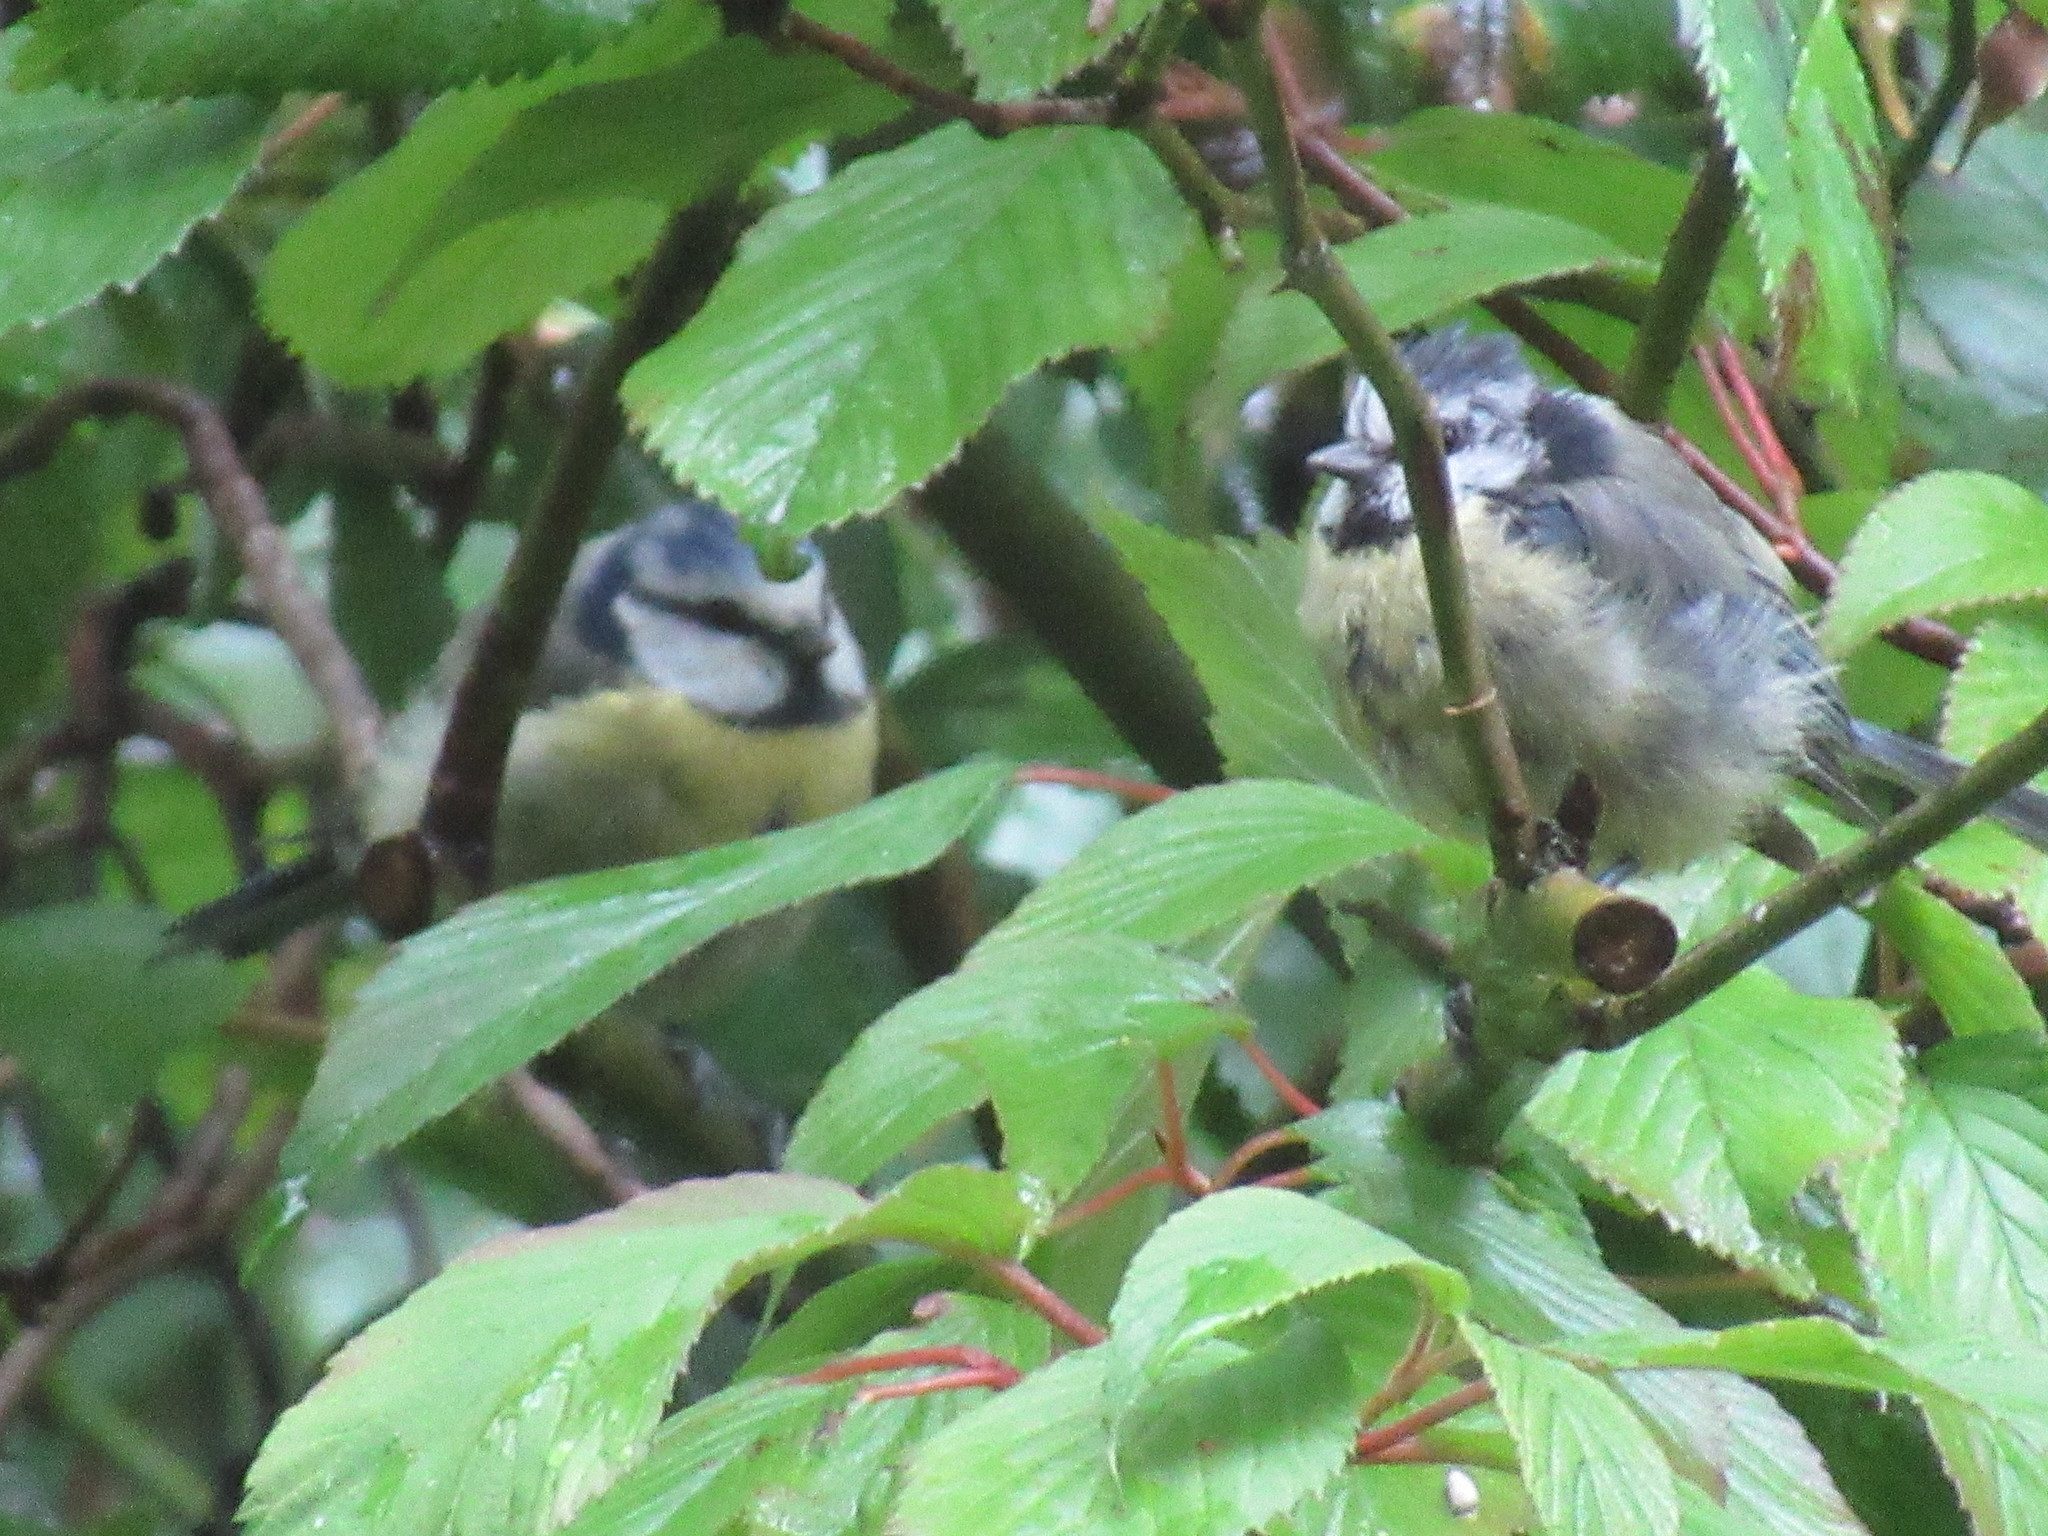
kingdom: Animalia
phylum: Chordata
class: Aves
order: Passeriformes
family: Paridae
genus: Cyanistes
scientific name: Cyanistes caeruleus
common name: Eurasian blue tit
